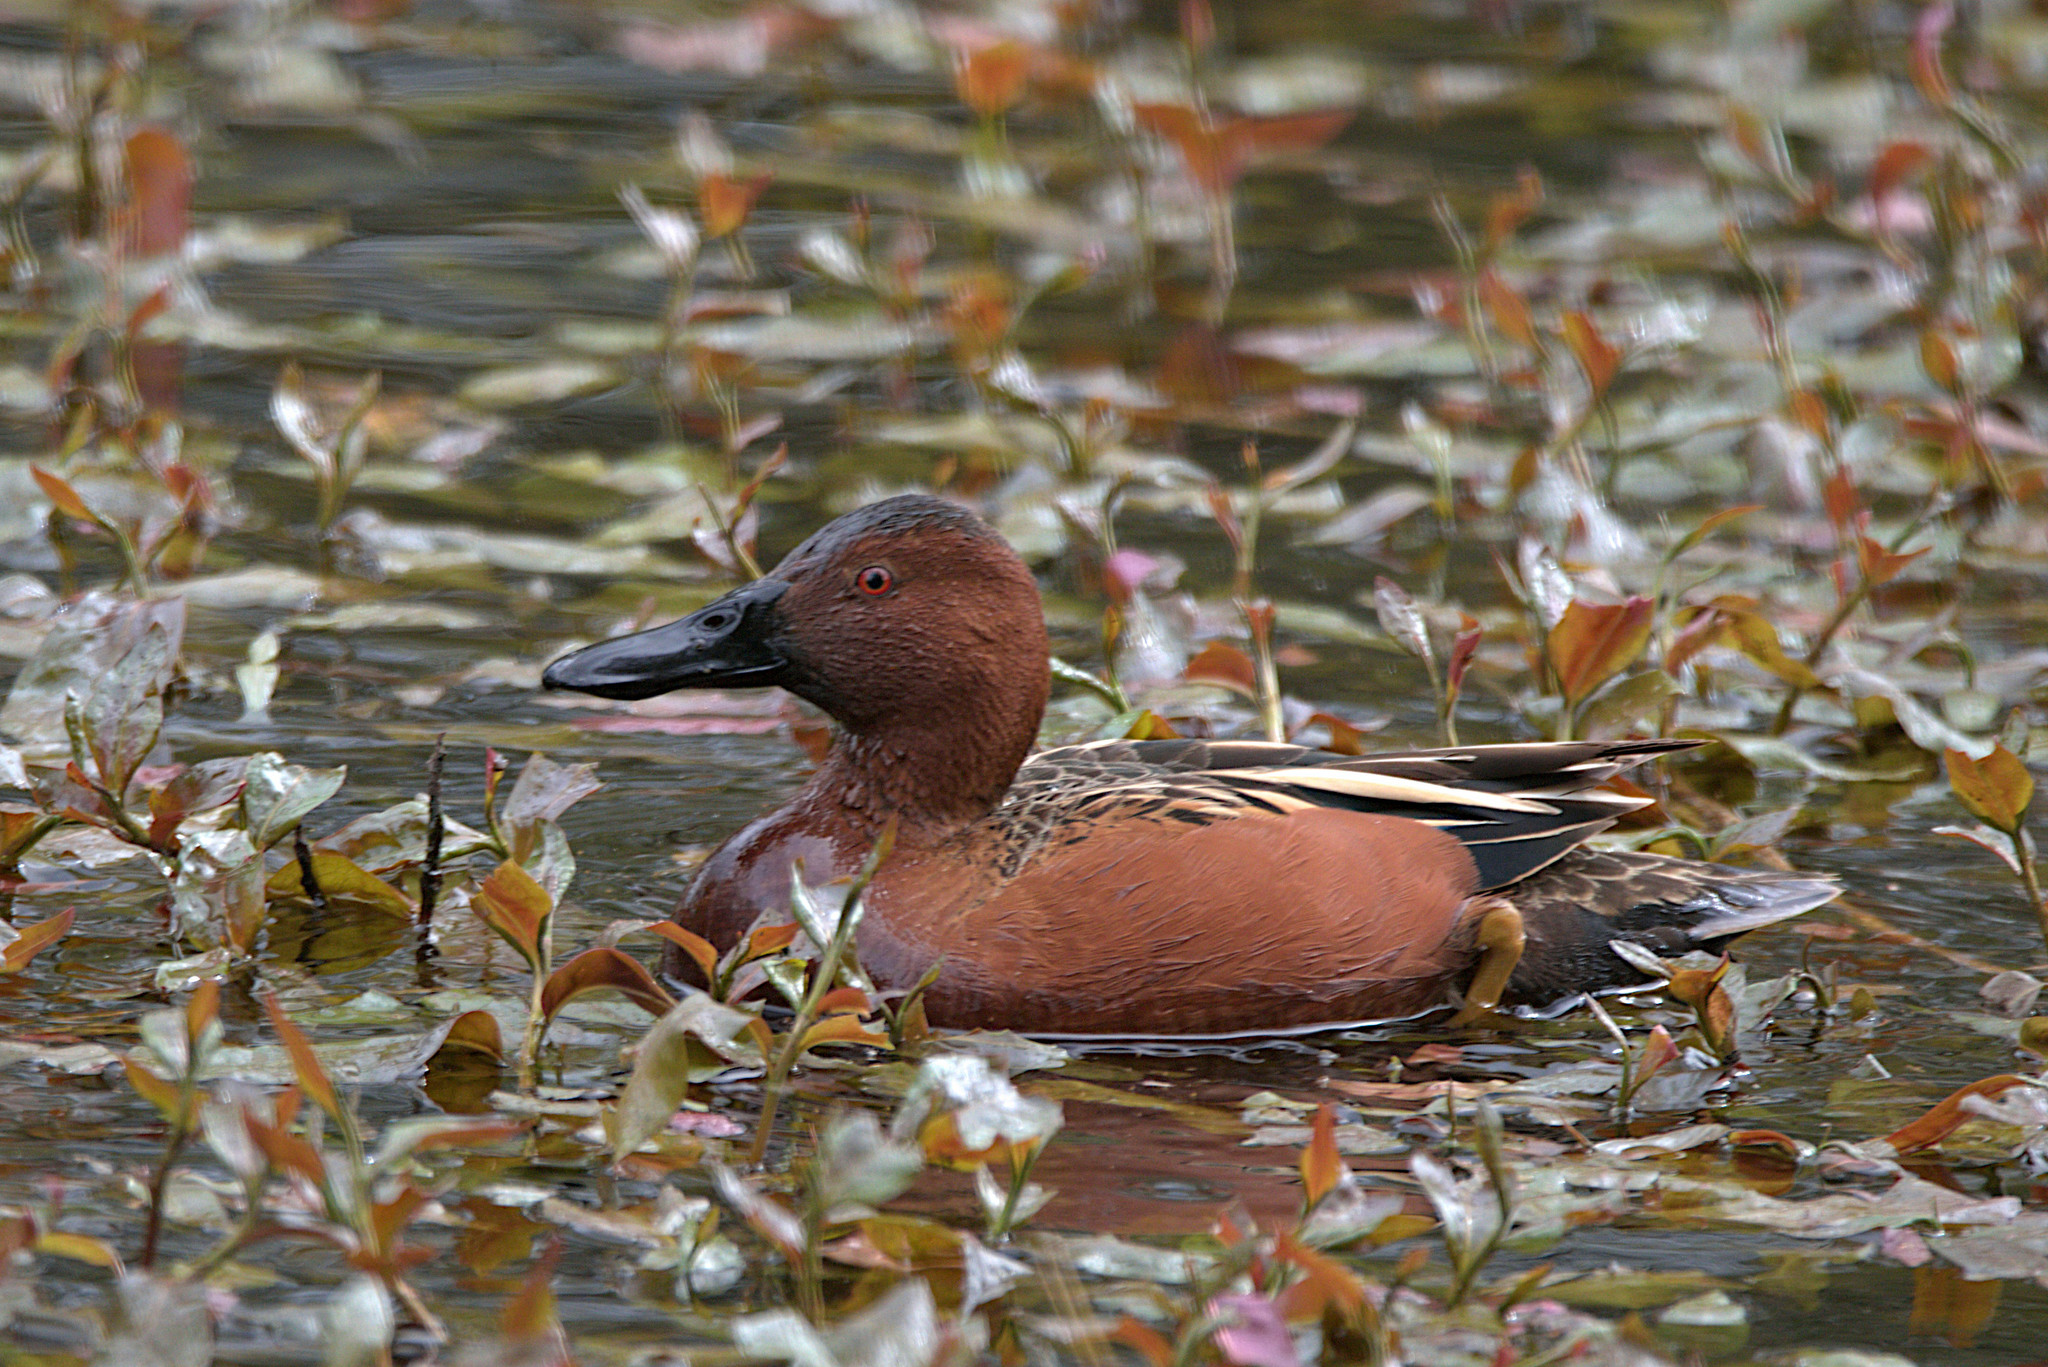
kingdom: Animalia
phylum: Chordata
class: Aves
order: Anseriformes
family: Anatidae
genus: Spatula
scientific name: Spatula cyanoptera
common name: Cinnamon teal
